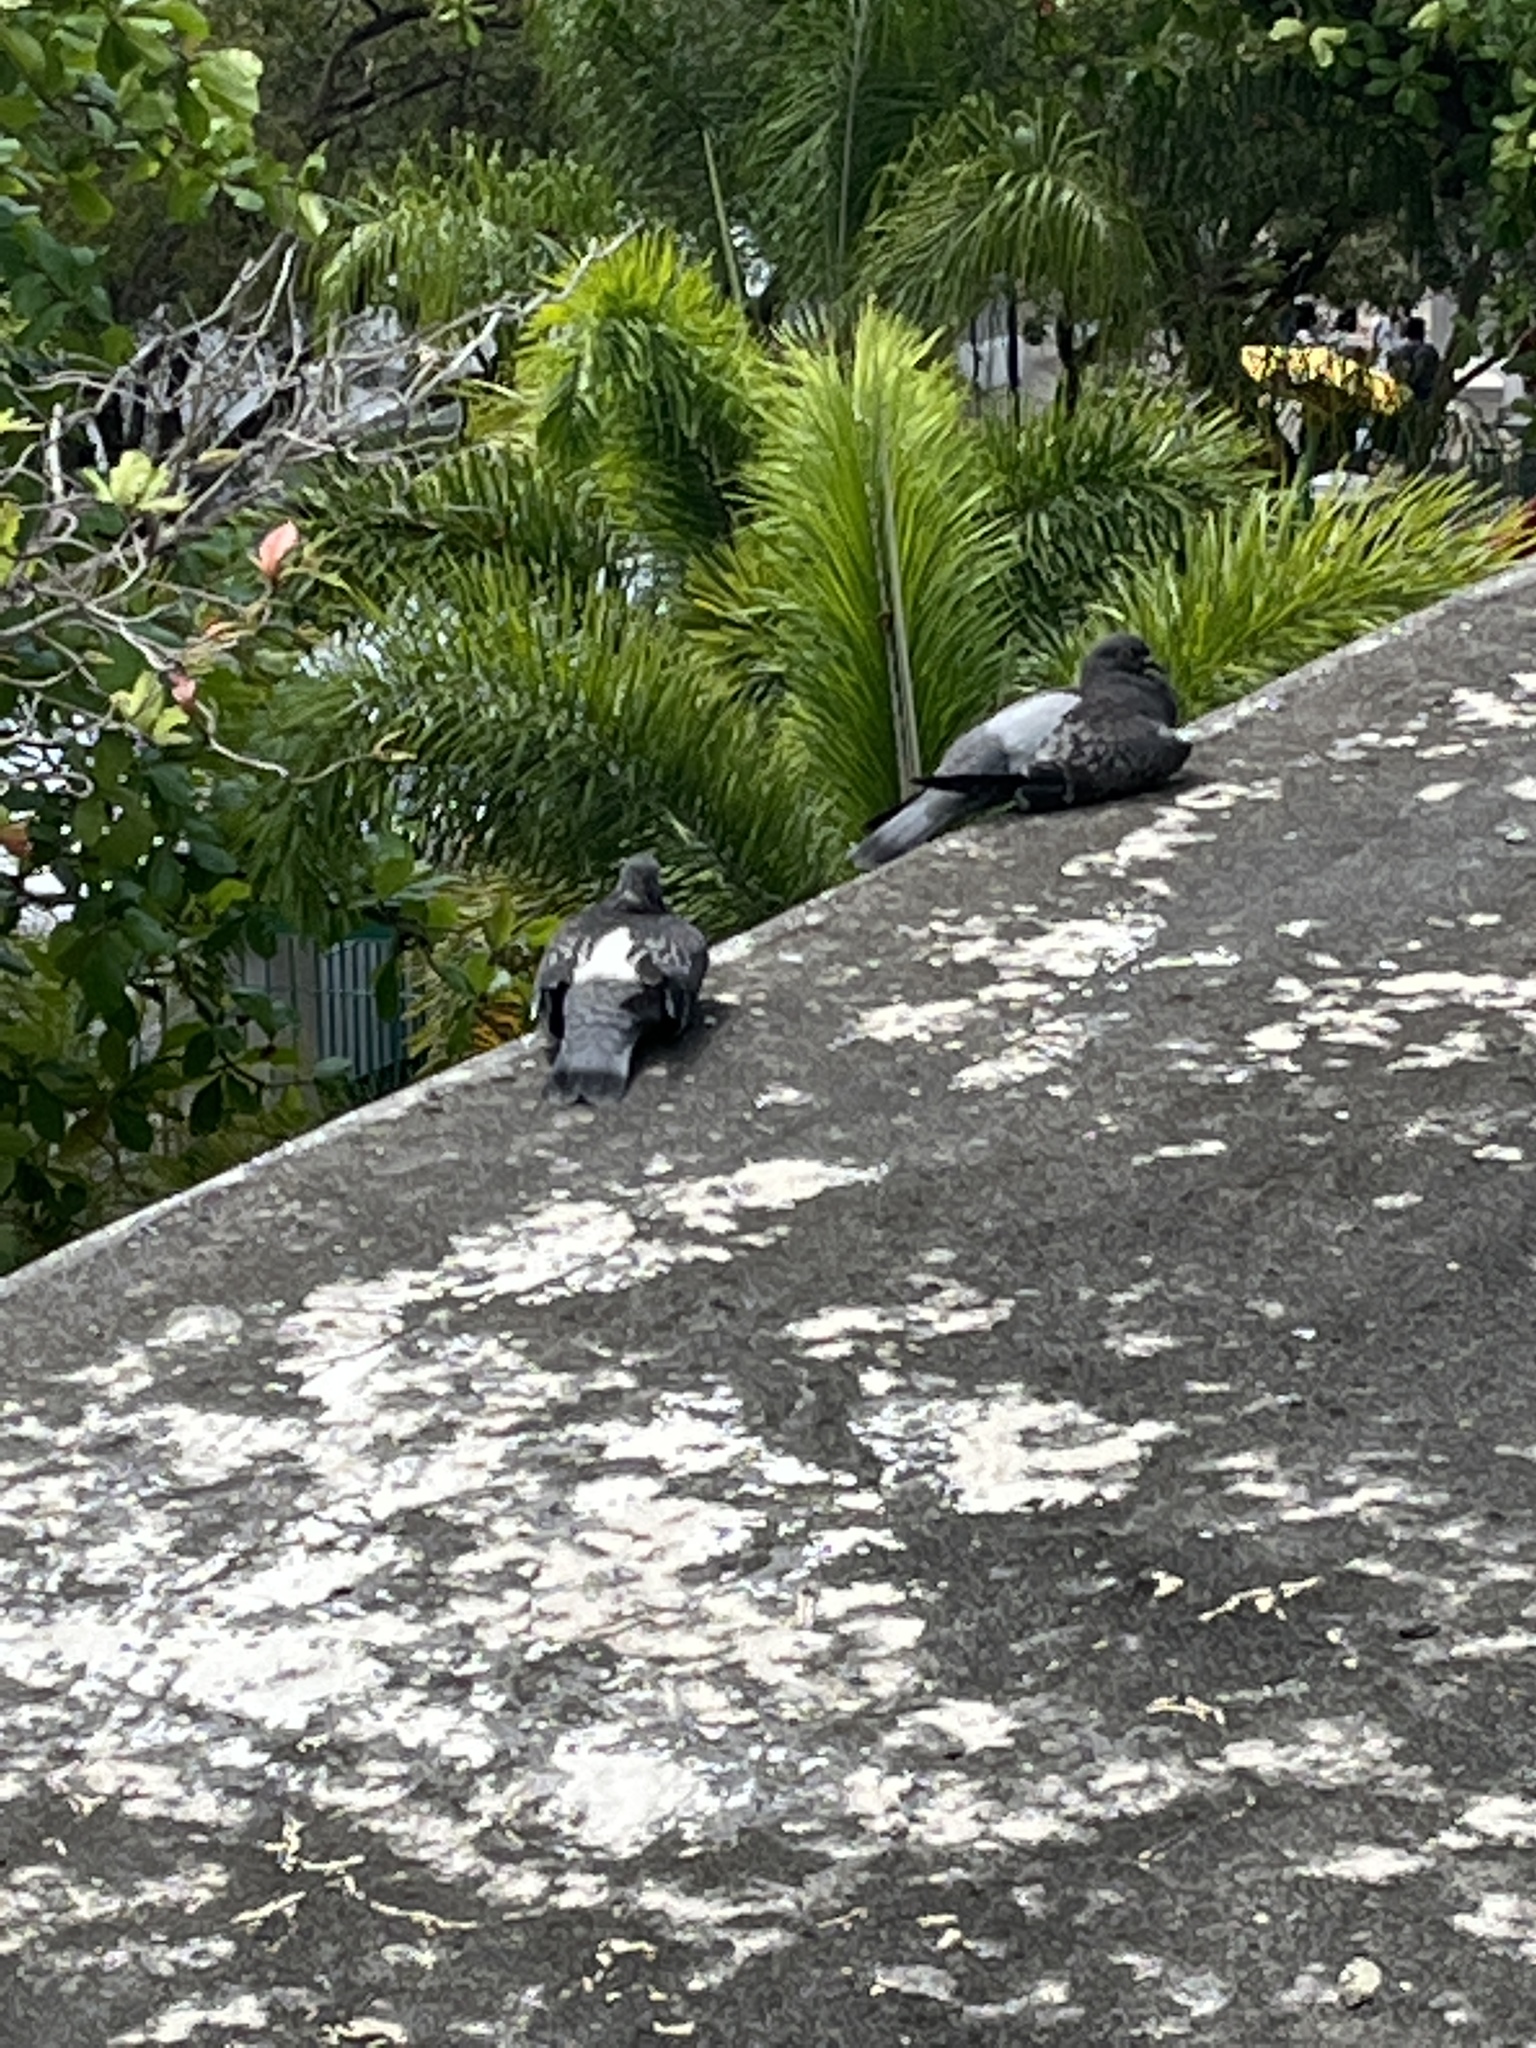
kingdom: Animalia
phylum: Chordata
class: Aves
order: Columbiformes
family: Columbidae
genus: Columba
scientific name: Columba livia
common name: Rock pigeon
